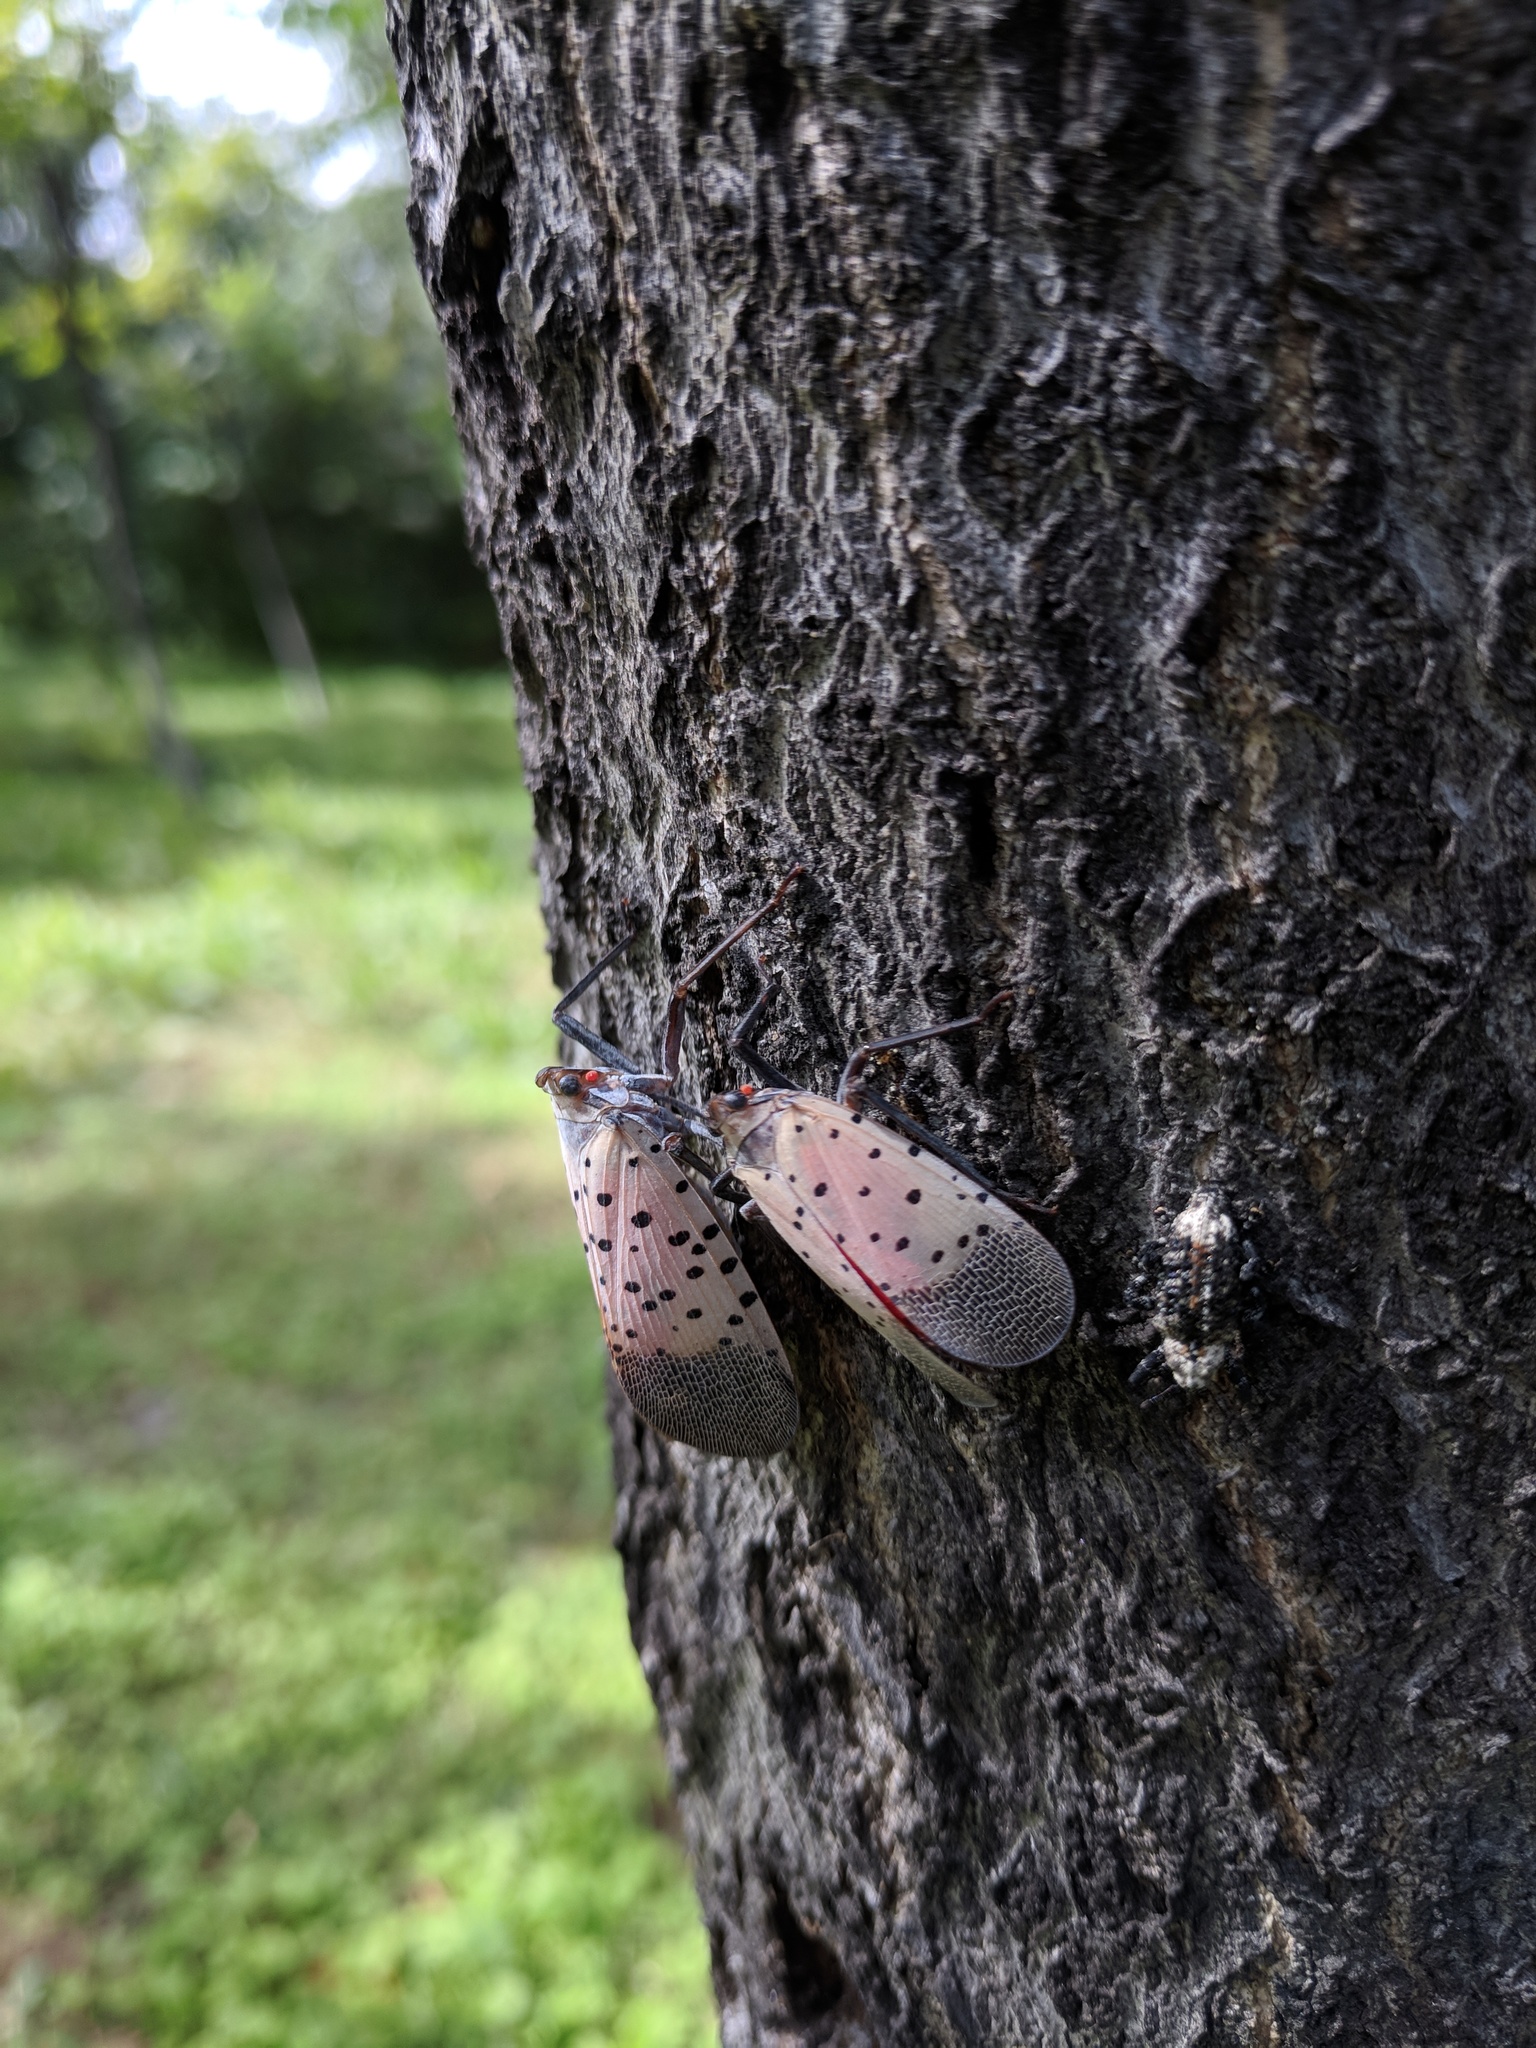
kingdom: Animalia
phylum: Arthropoda
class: Insecta
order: Hemiptera
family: Fulgoridae
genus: Lycorma
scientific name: Lycorma delicatula
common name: Spotted lanternfly
